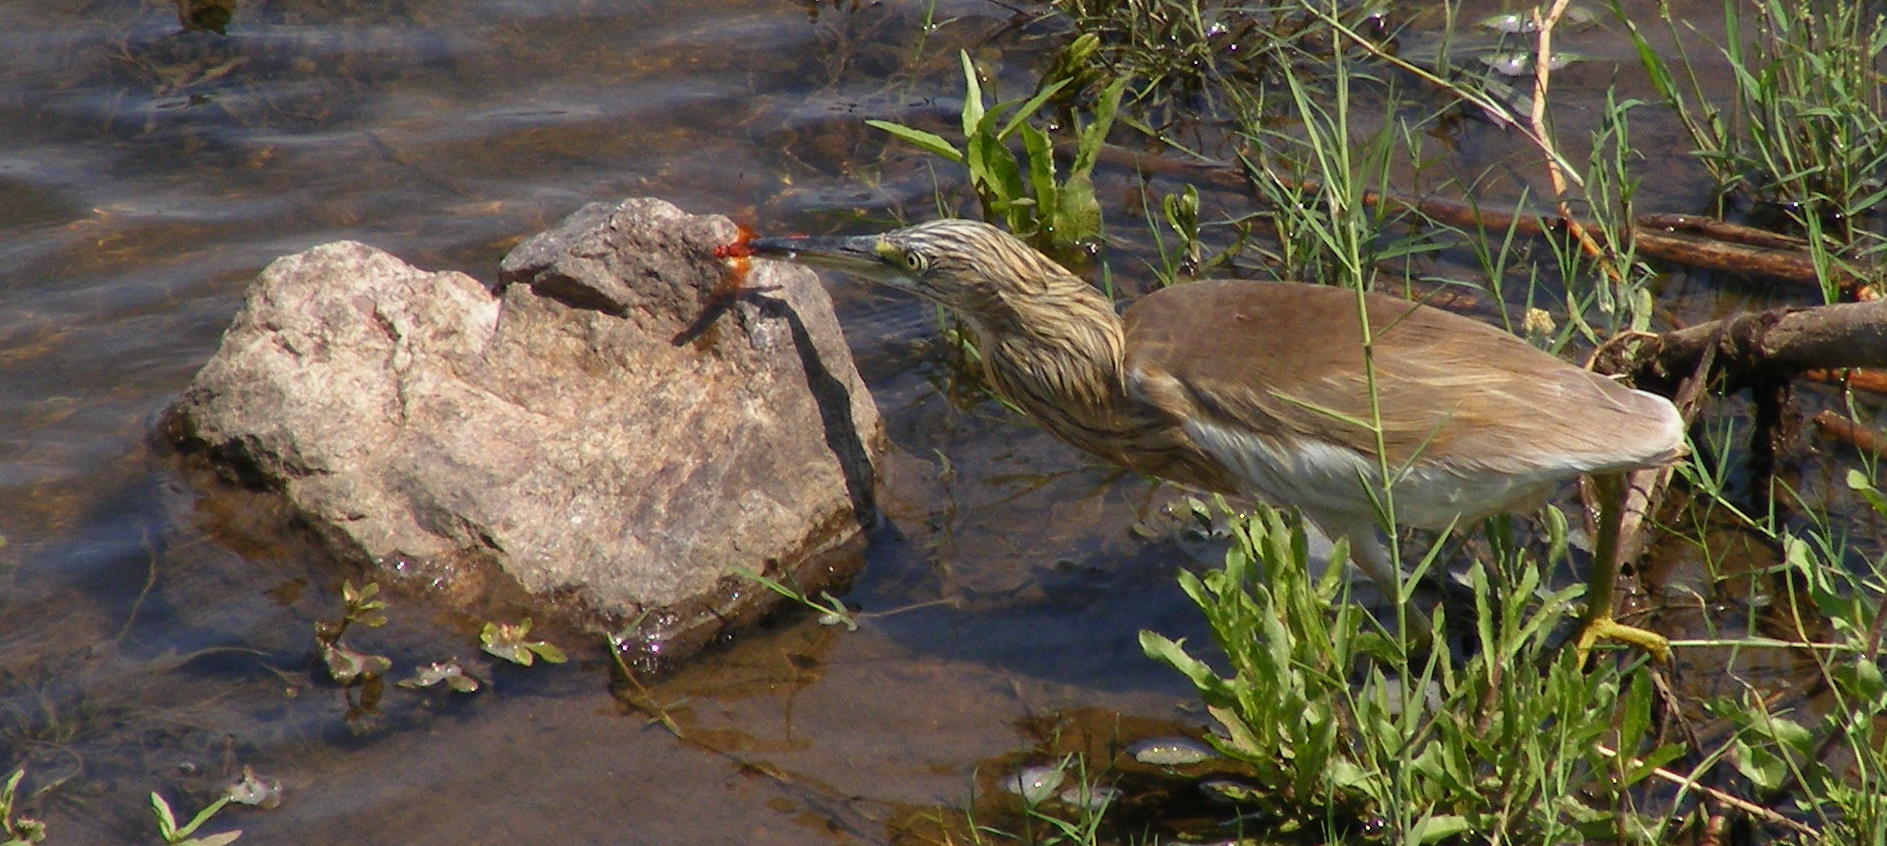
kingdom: Animalia
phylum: Chordata
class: Aves
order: Pelecaniformes
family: Ardeidae
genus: Ardeola
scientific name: Ardeola ralloides
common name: Squacco heron
